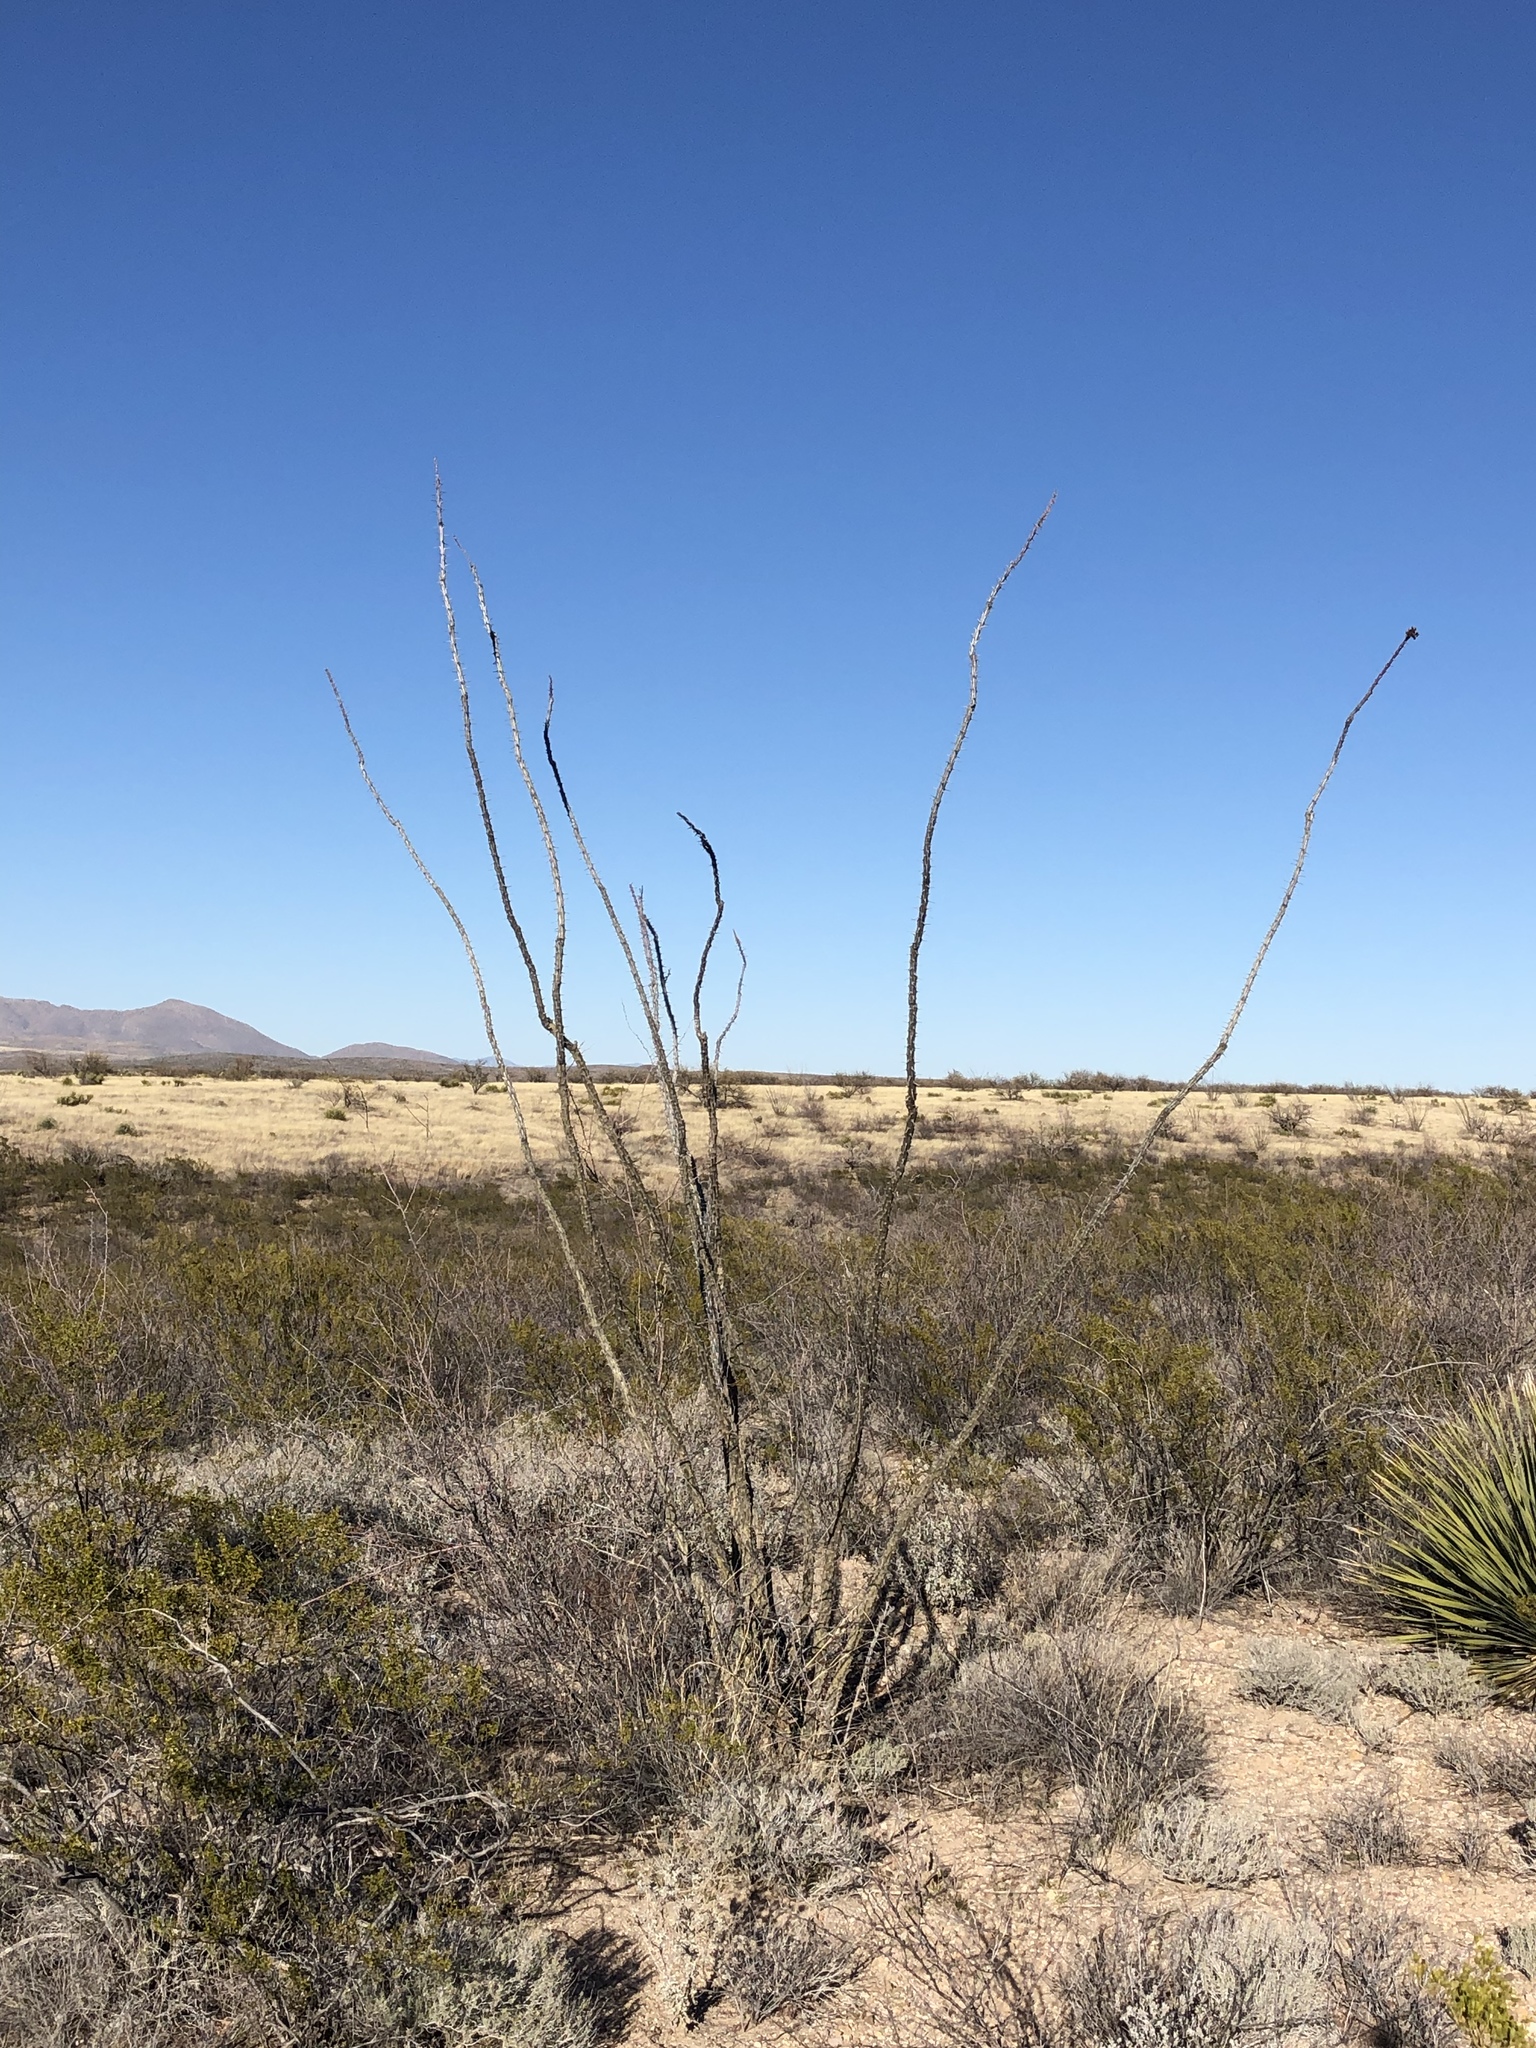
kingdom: Plantae
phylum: Tracheophyta
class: Magnoliopsida
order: Ericales
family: Fouquieriaceae
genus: Fouquieria
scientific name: Fouquieria splendens
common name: Vine-cactus
